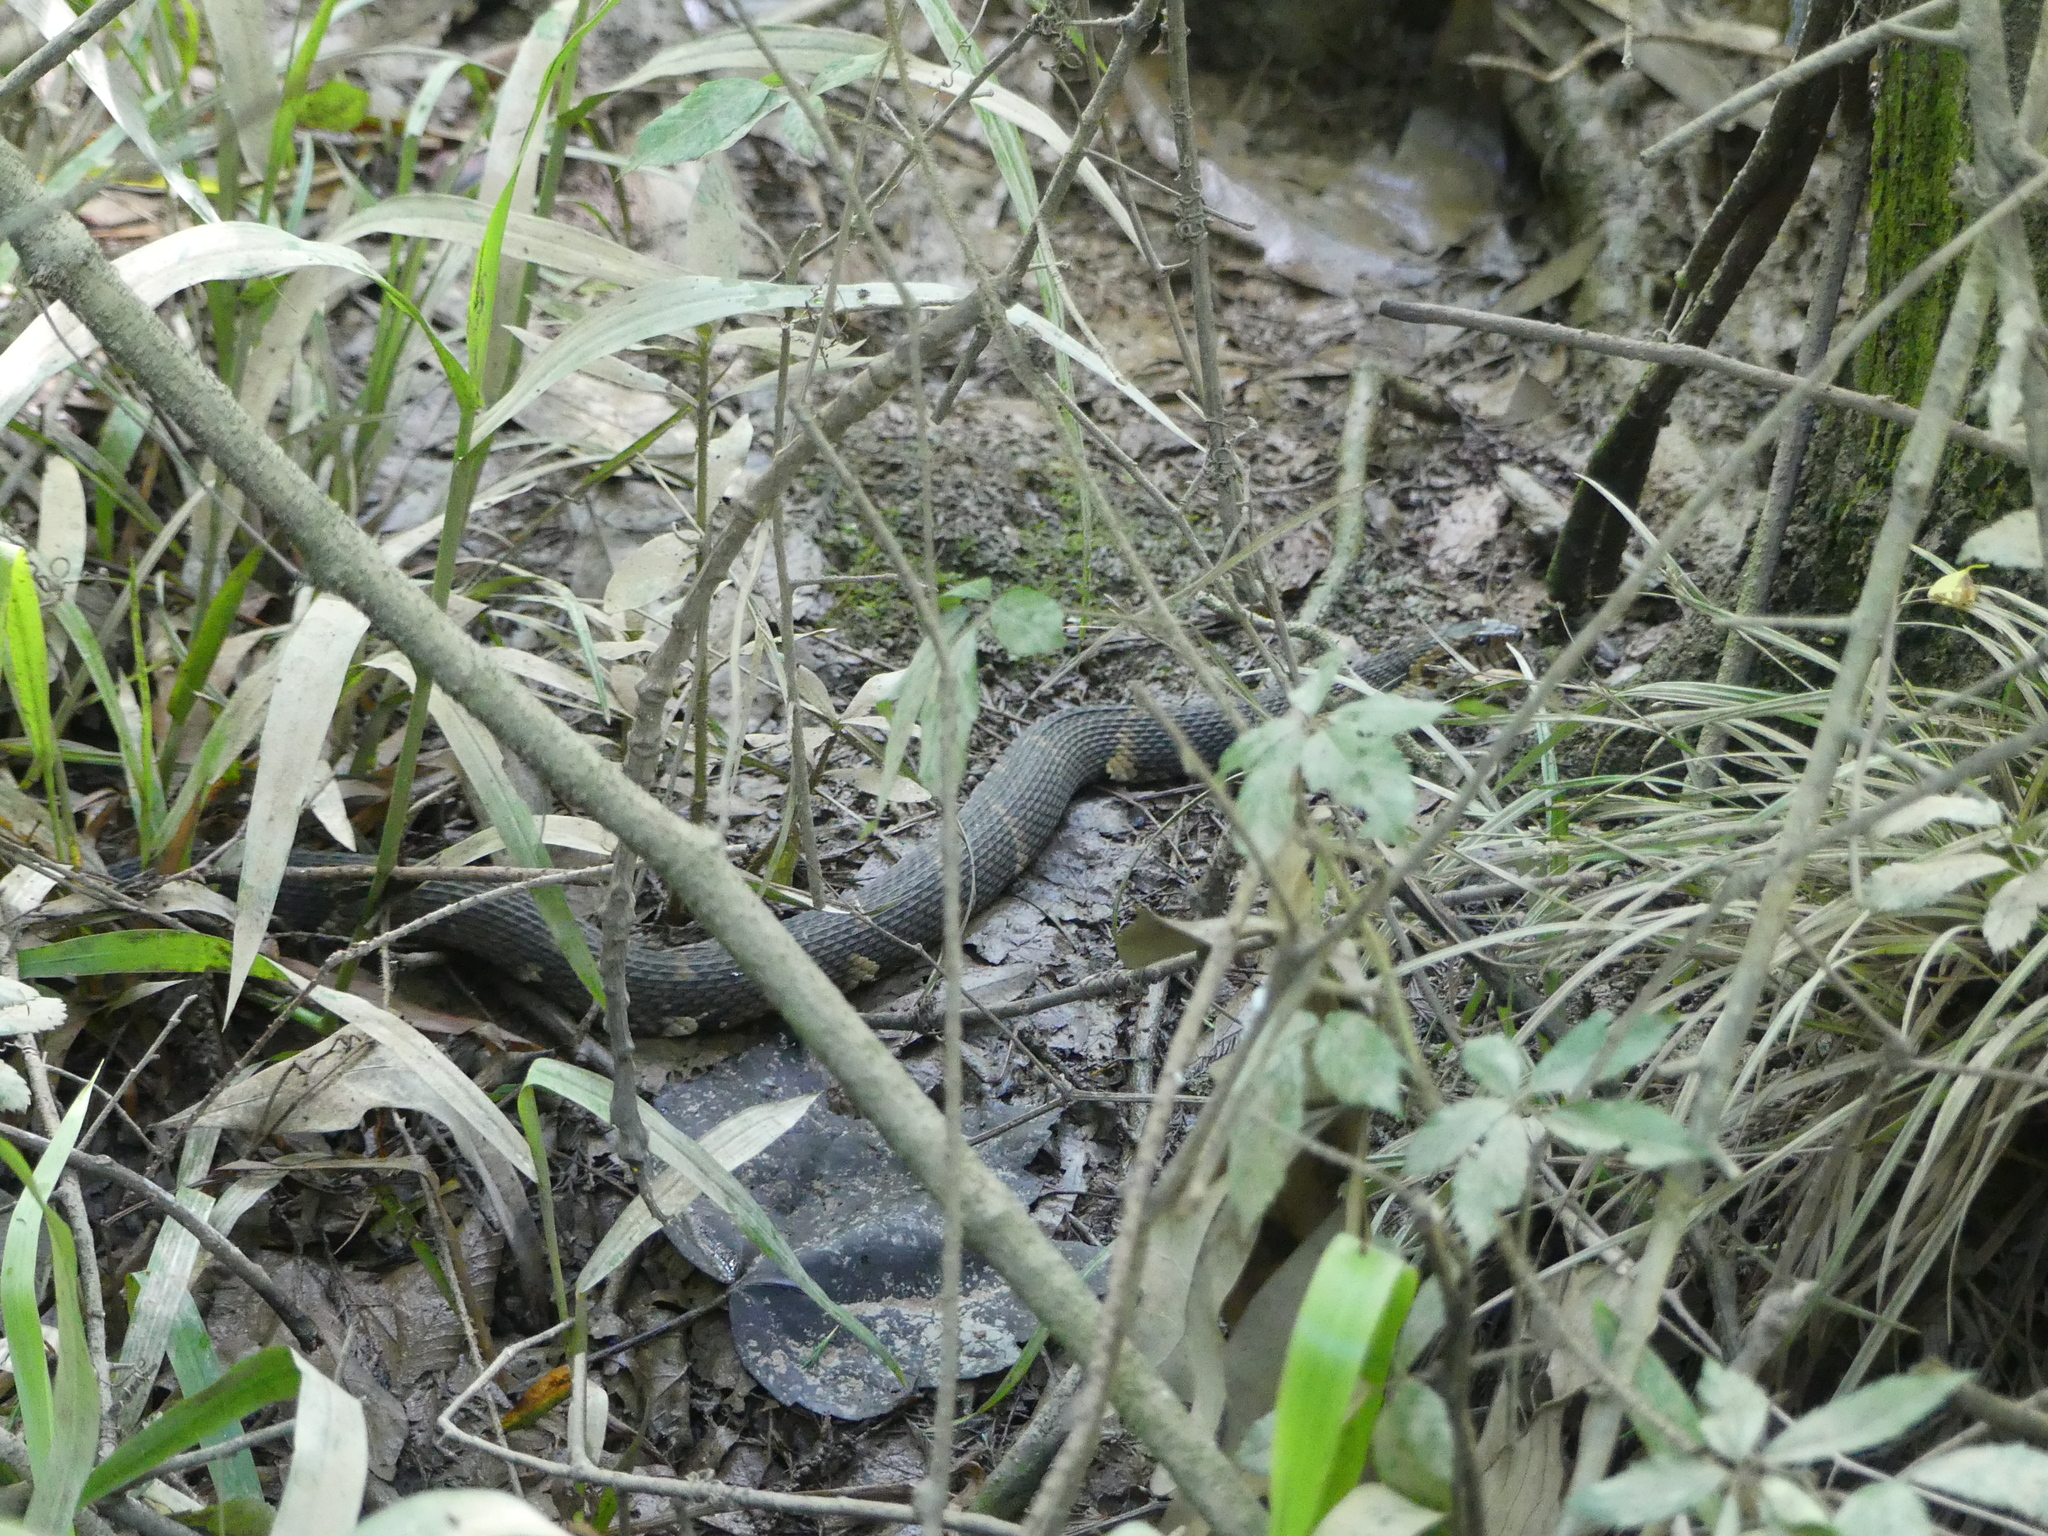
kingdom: Animalia
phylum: Chordata
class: Squamata
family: Colubridae
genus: Nerodia
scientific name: Nerodia fasciata
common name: Southern water snake
